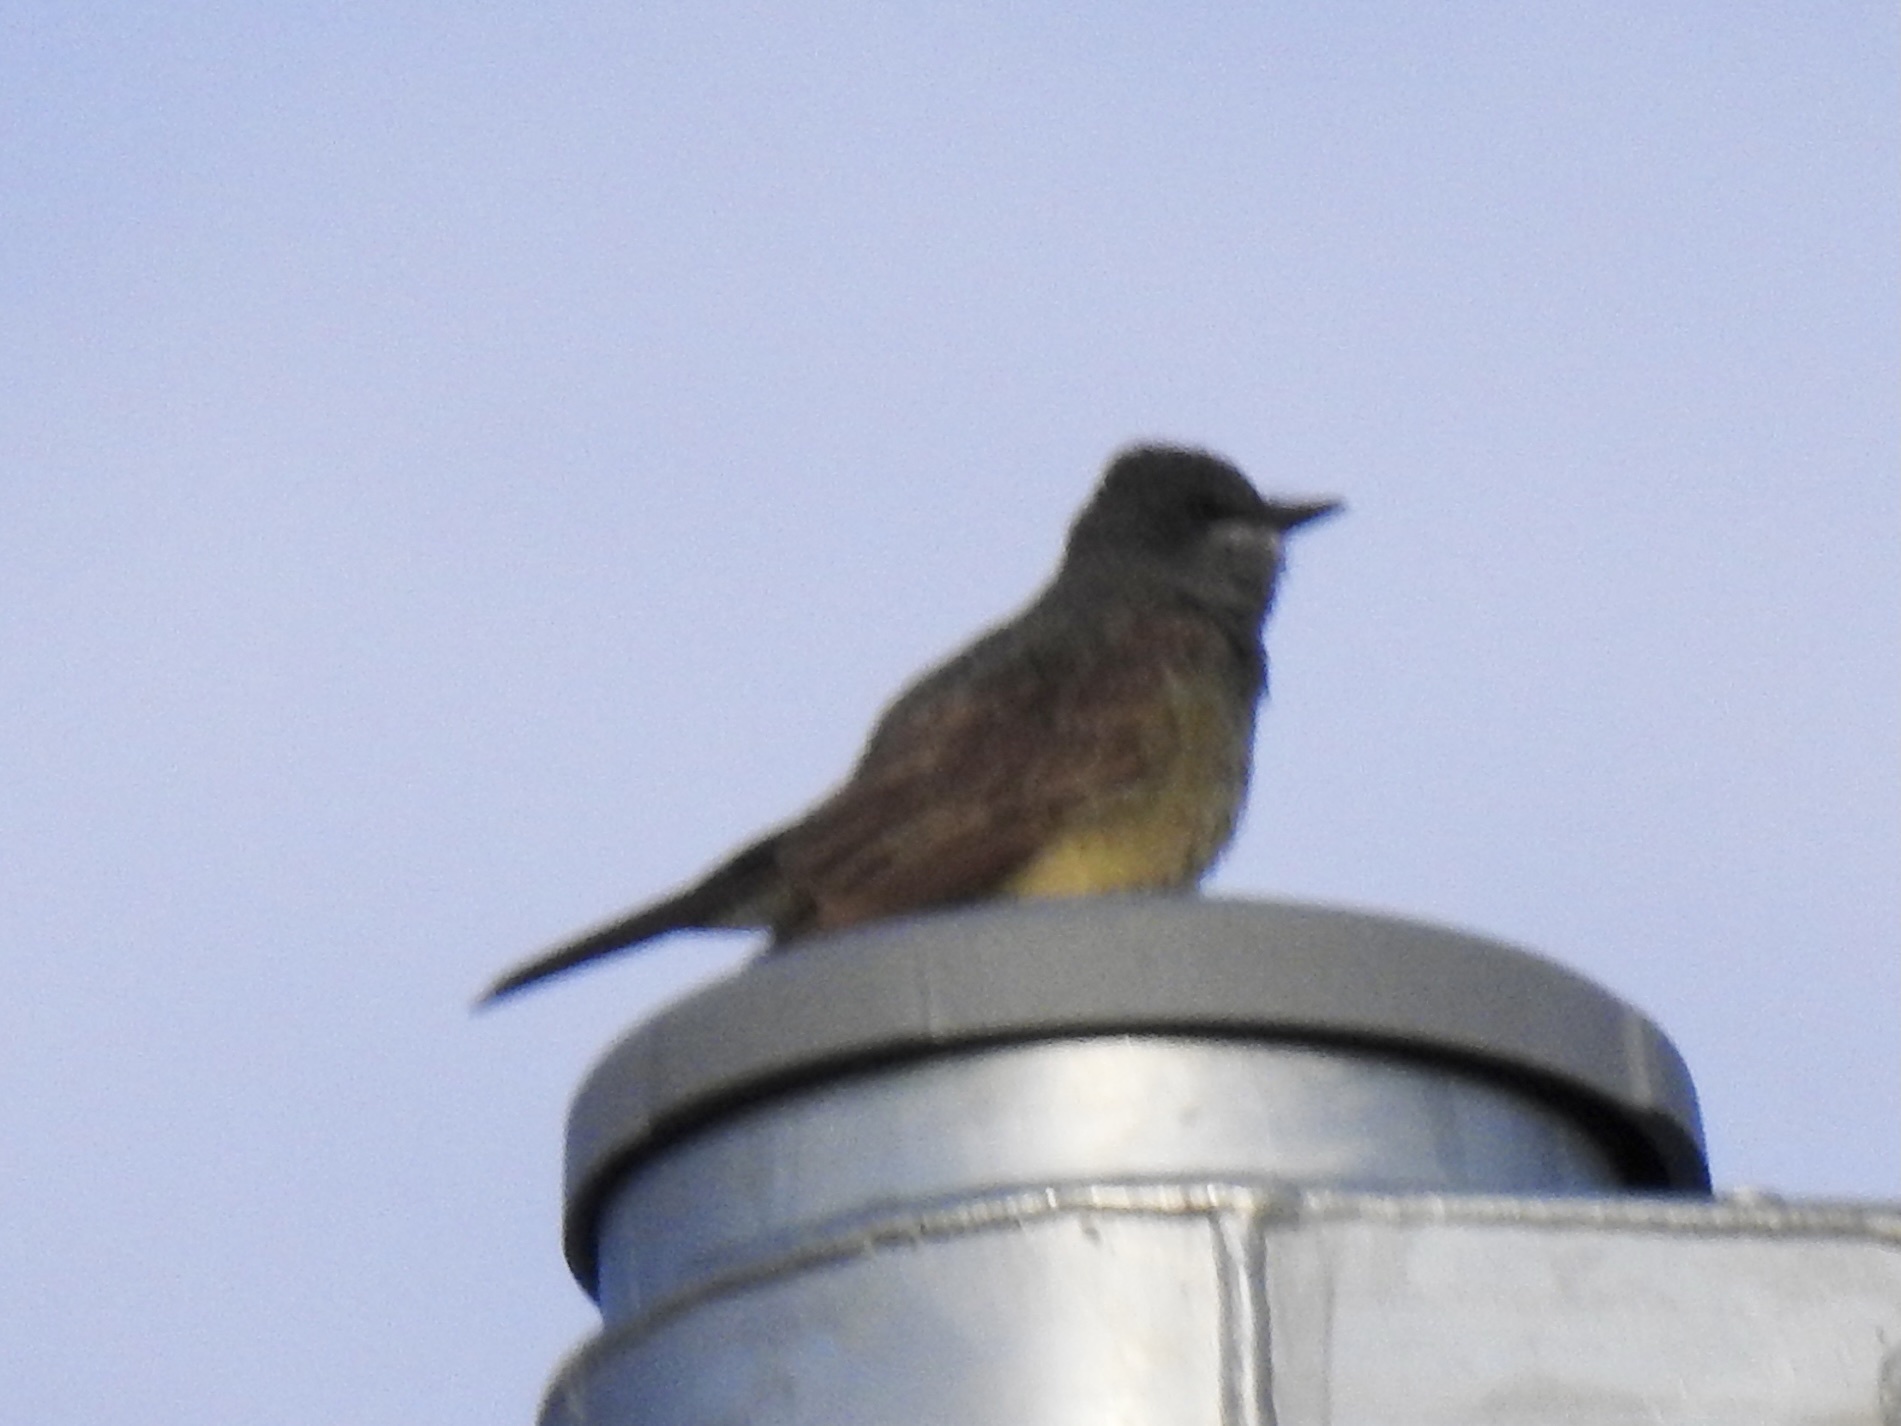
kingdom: Animalia
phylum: Chordata
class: Aves
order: Passeriformes
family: Tyrannidae
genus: Tyrannus
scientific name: Tyrannus vociferans
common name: Cassin's kingbird
